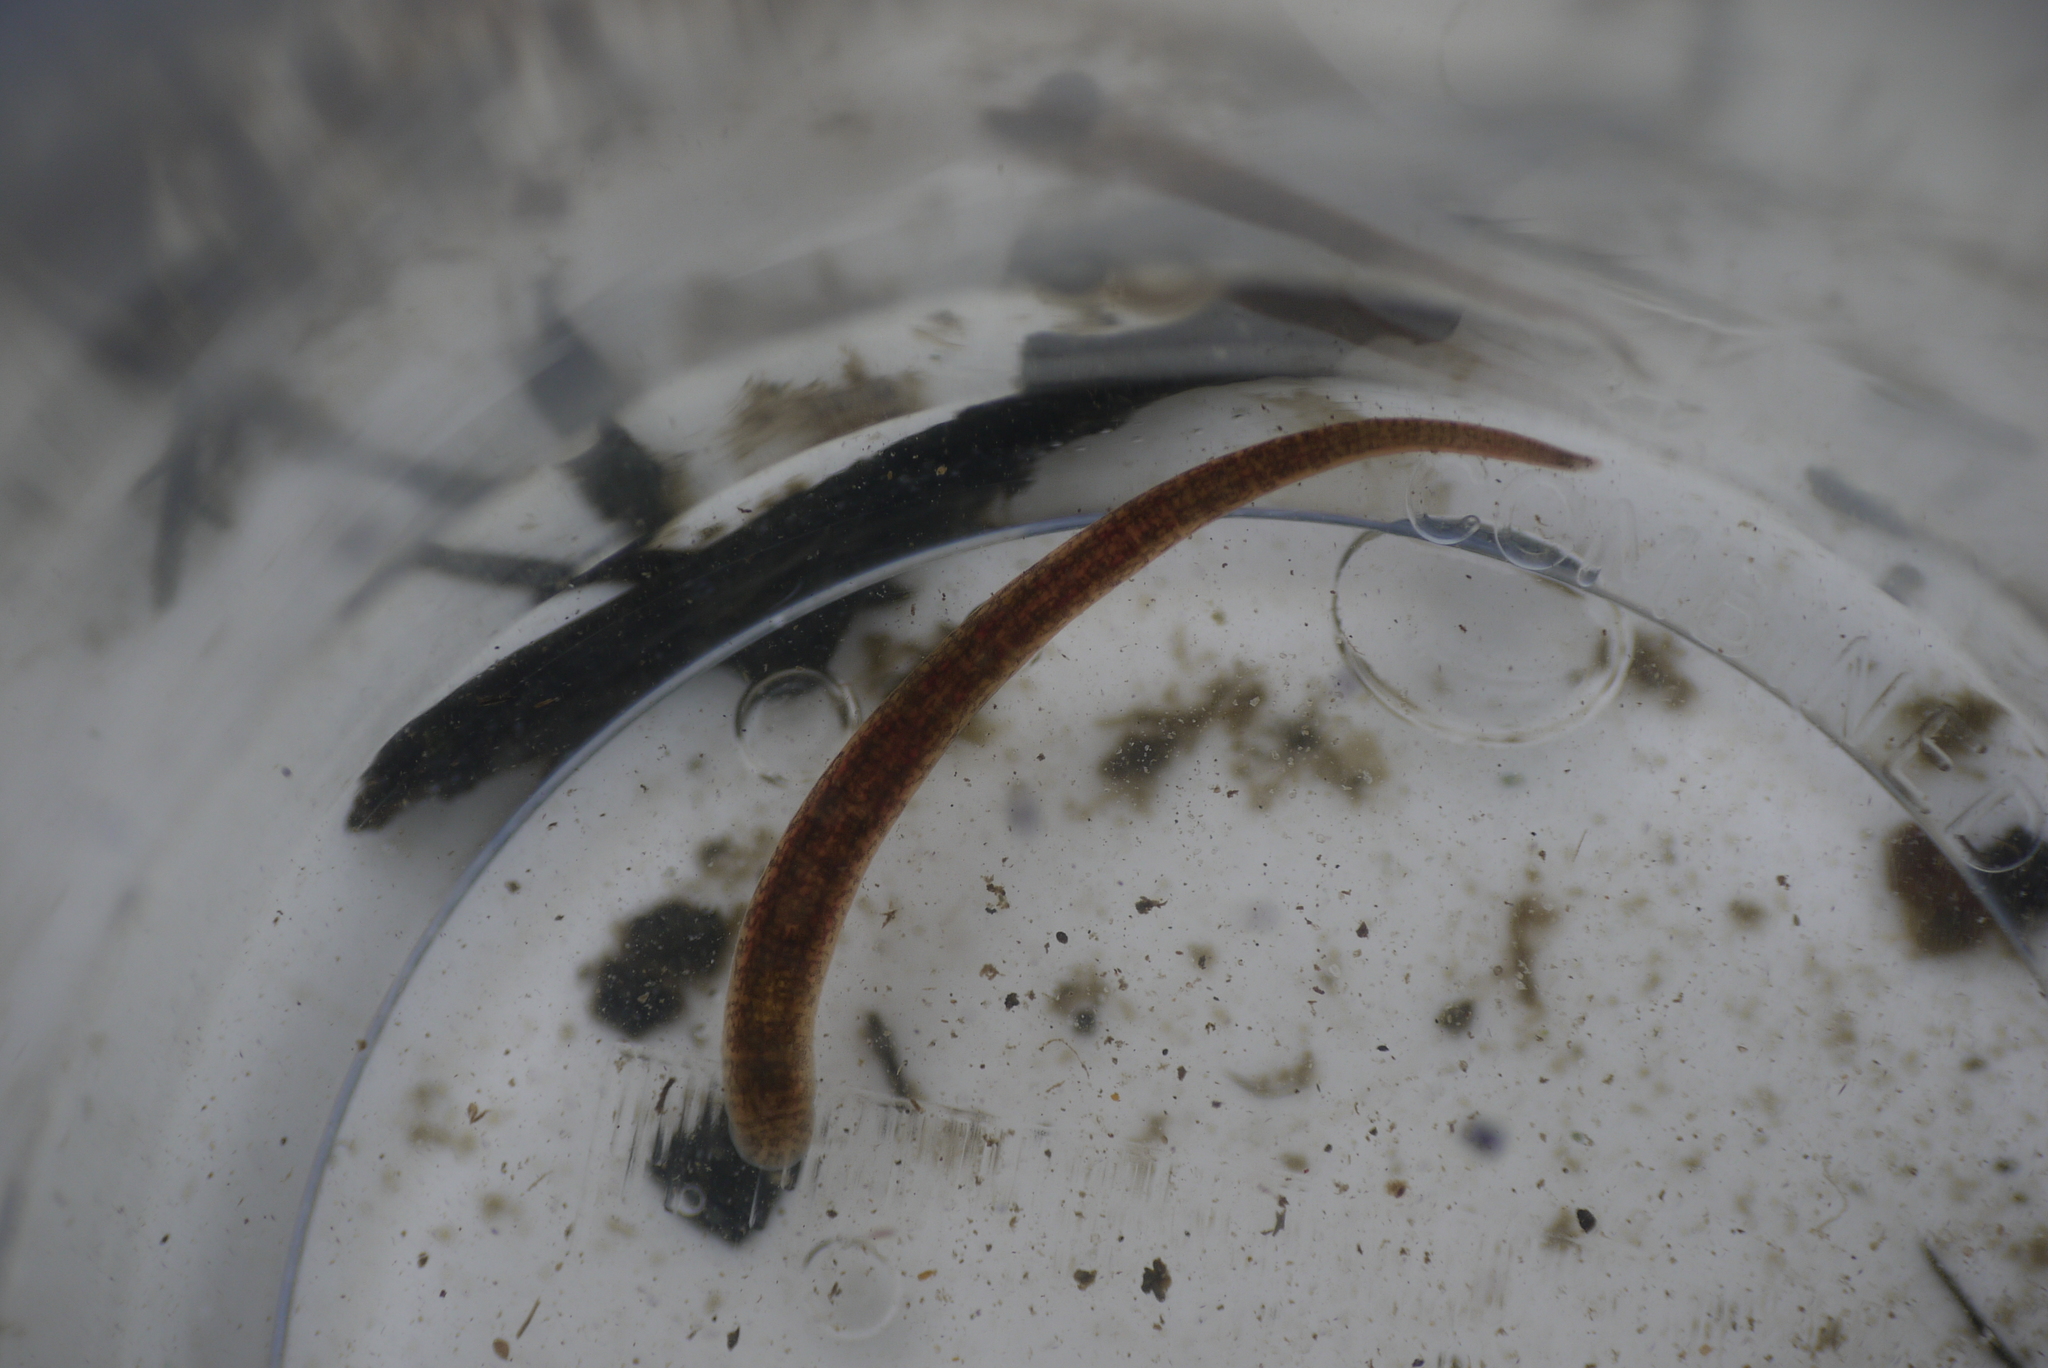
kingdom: Animalia
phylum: Annelida
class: Clitellata
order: Arhynchobdellida
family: Erpobdellidae
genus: Erpobdella
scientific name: Erpobdella octoculata
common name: Leeches
